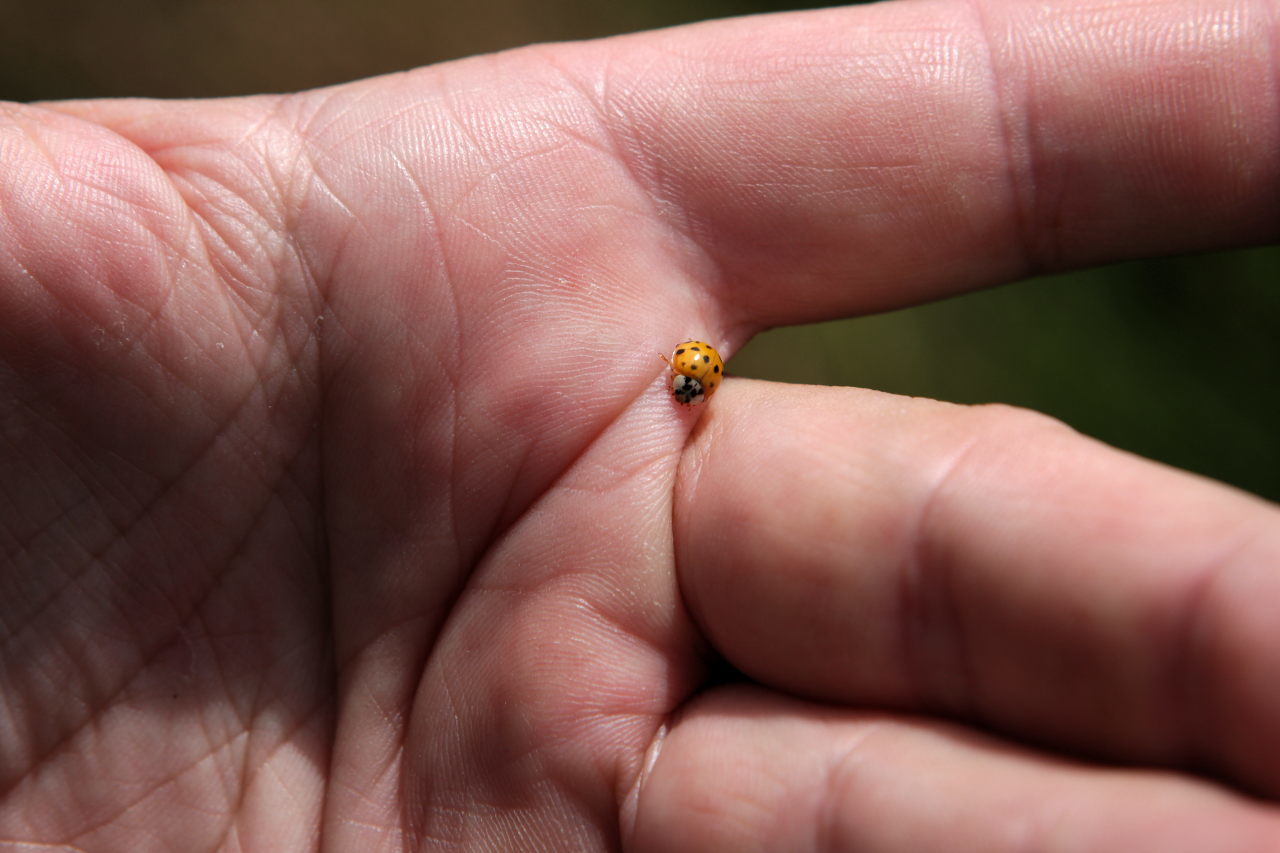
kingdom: Animalia
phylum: Arthropoda
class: Insecta
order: Coleoptera
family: Coccinellidae
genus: Harmonia
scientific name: Harmonia axyridis
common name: Harlequin ladybird
